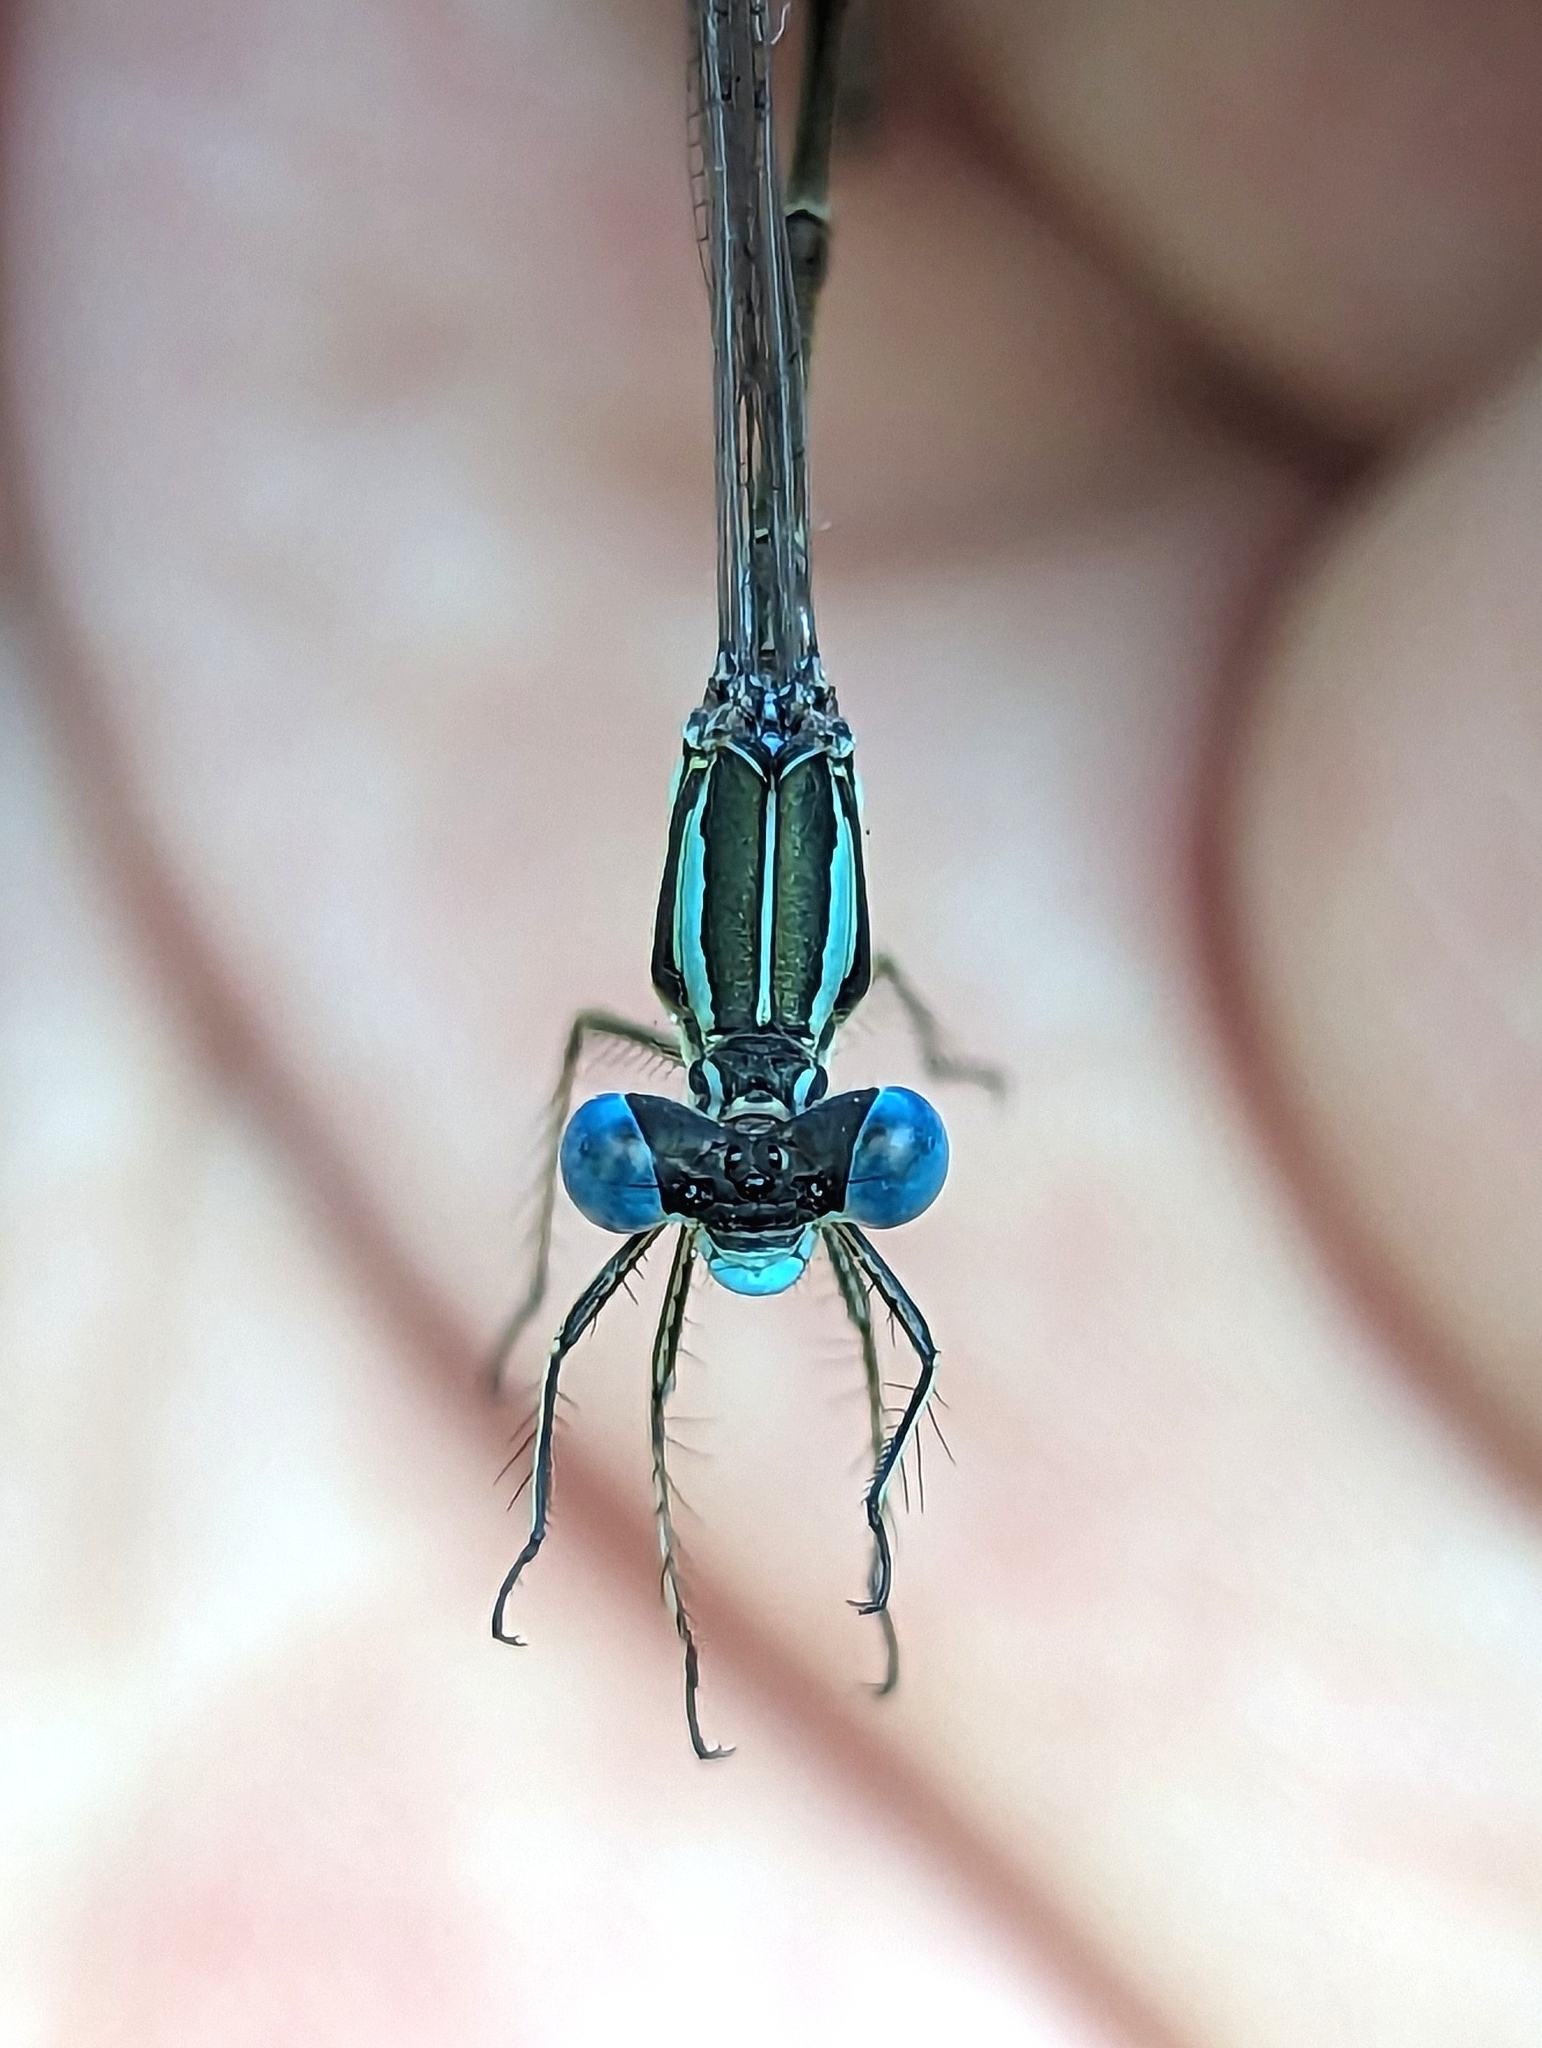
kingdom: Animalia
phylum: Arthropoda
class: Insecta
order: Odonata
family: Lestidae
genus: Lestes
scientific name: Lestes rectangularis
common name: Slender spreadwing
